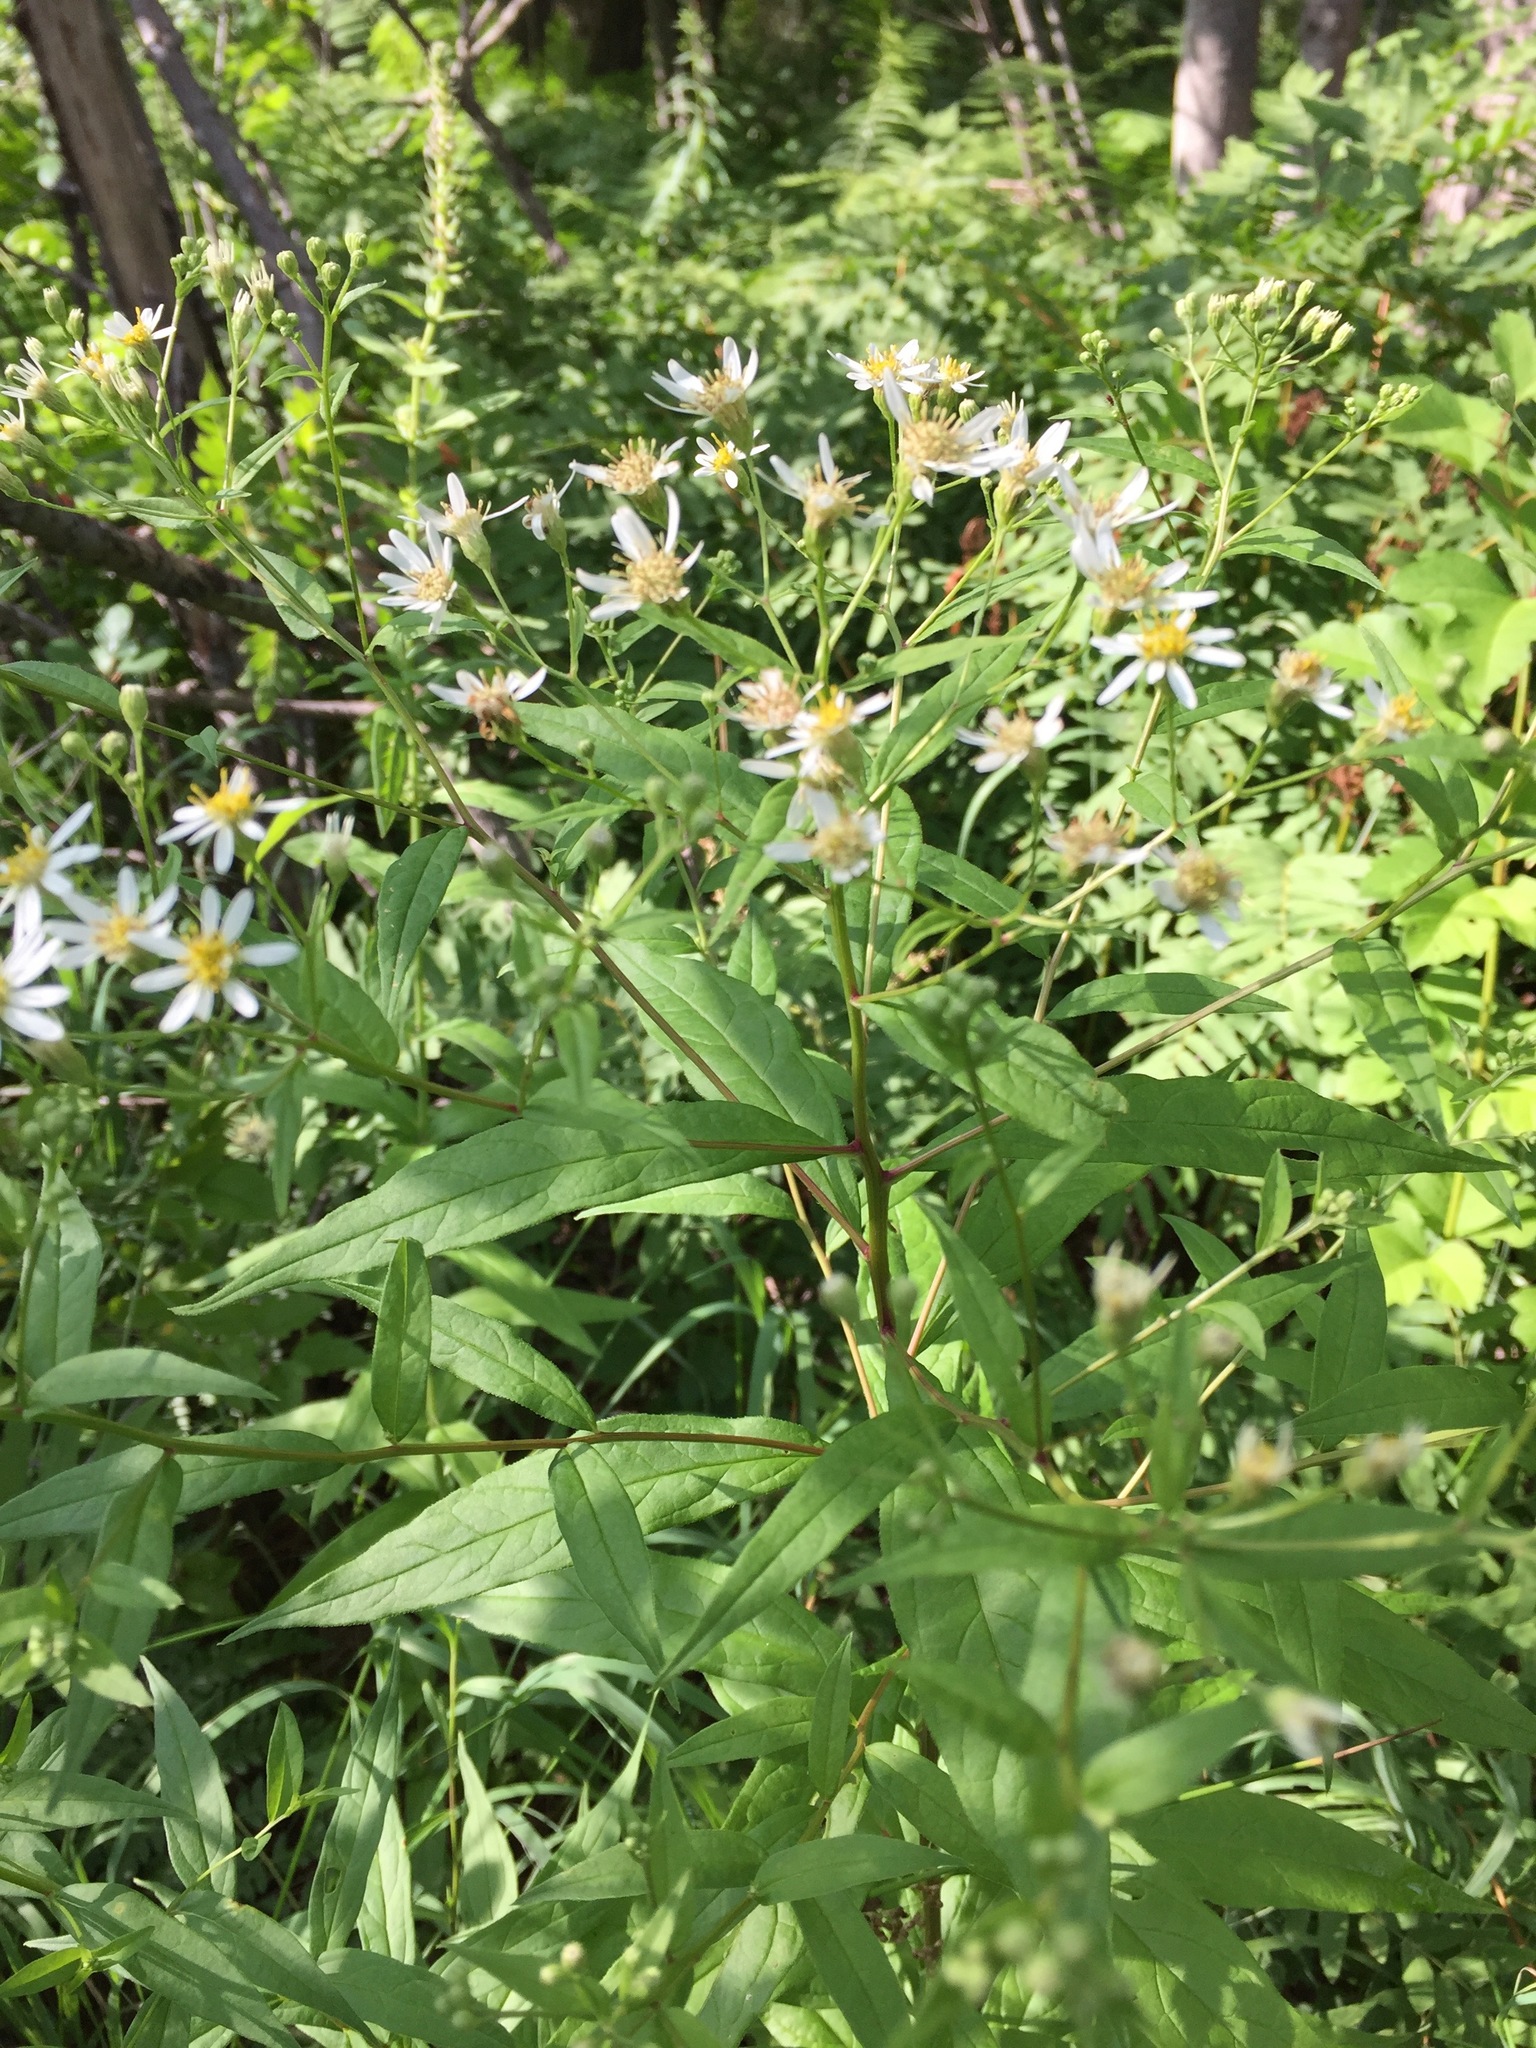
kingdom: Plantae
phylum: Tracheophyta
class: Magnoliopsida
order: Asterales
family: Asteraceae
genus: Doellingeria
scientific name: Doellingeria umbellata
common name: Flat-top white aster
